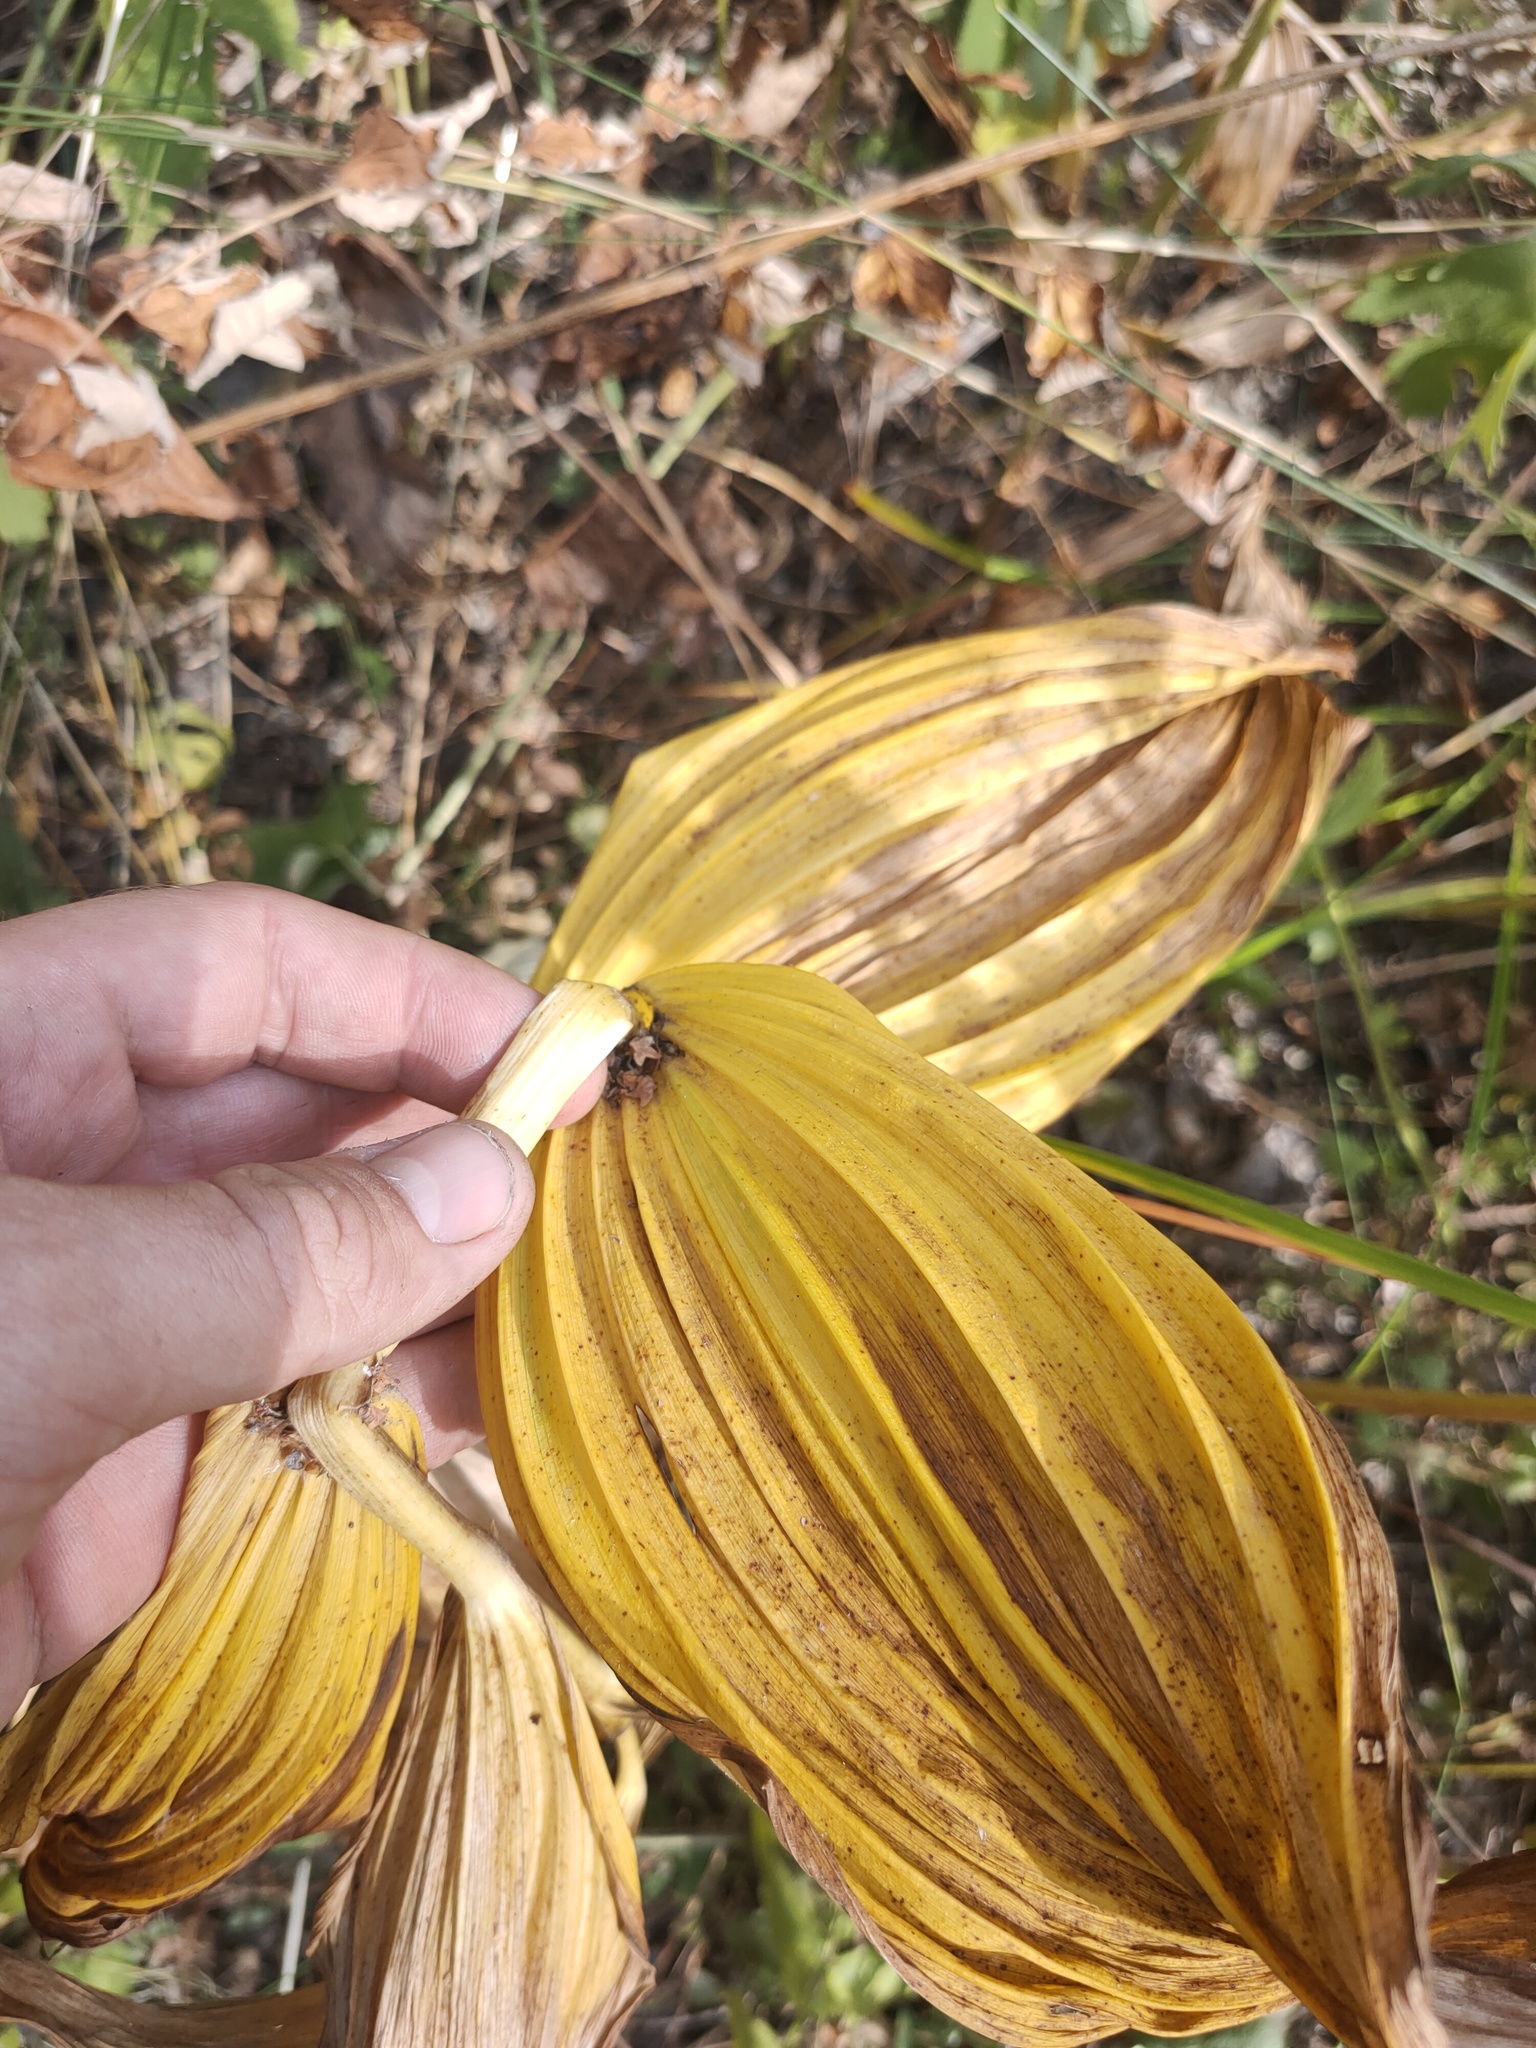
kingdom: Plantae
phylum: Tracheophyta
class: Liliopsida
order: Liliales
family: Melanthiaceae
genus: Veratrum
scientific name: Veratrum lobelianum
